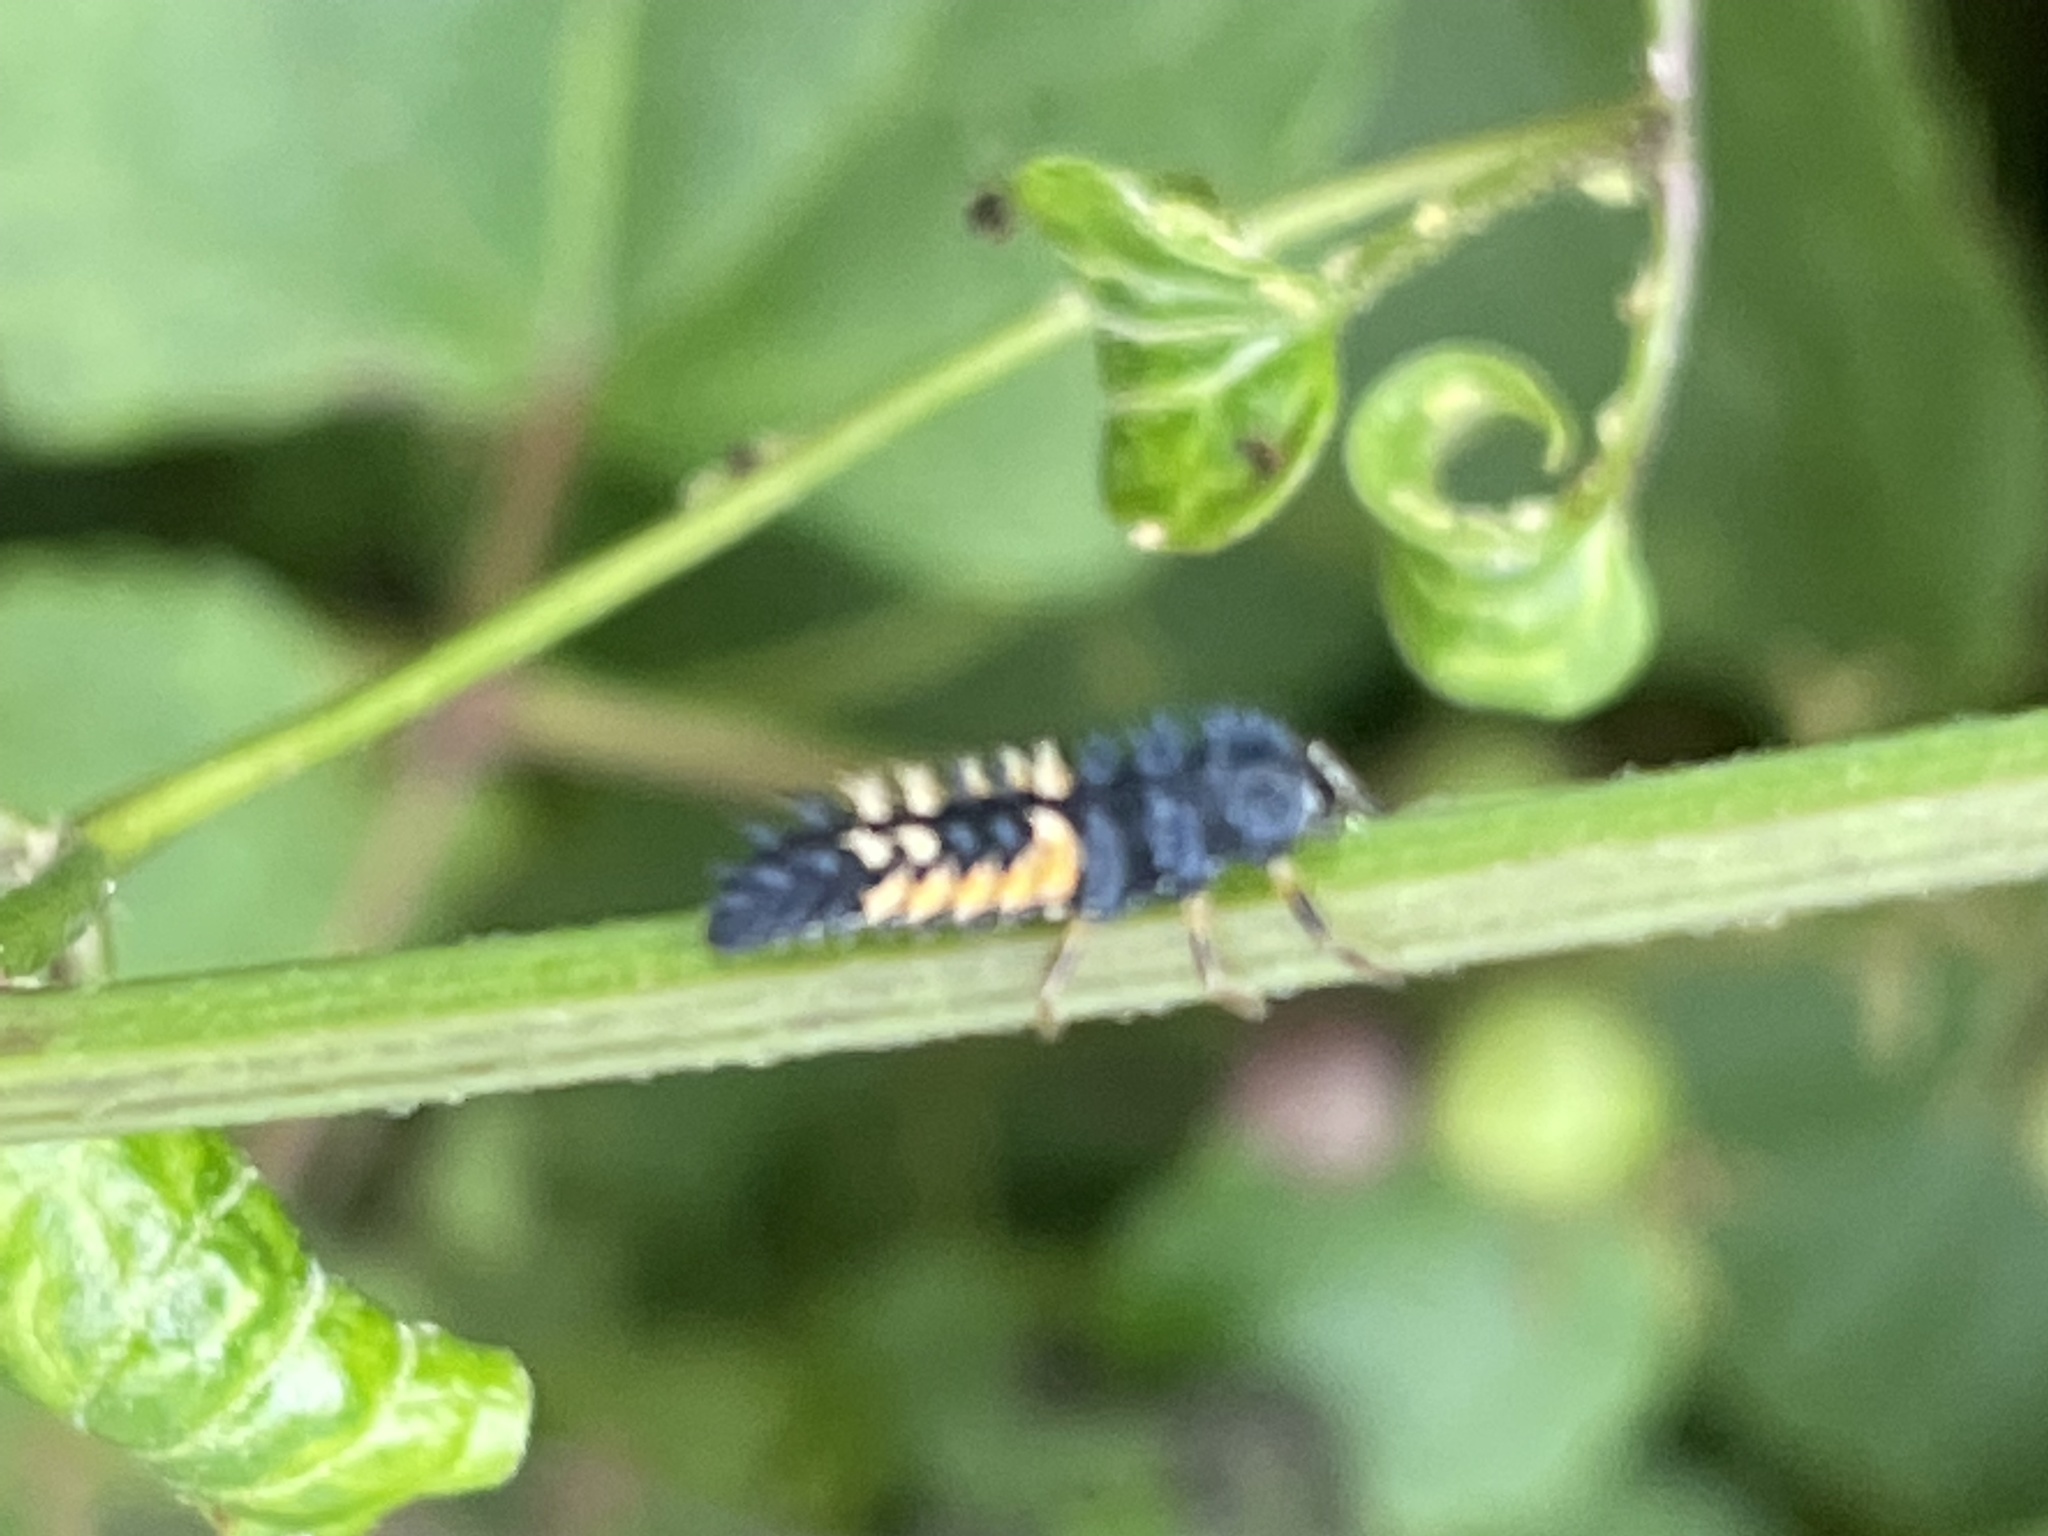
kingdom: Animalia
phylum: Arthropoda
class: Insecta
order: Coleoptera
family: Coccinellidae
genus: Harmonia
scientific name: Harmonia axyridis
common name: Harlequin ladybird
